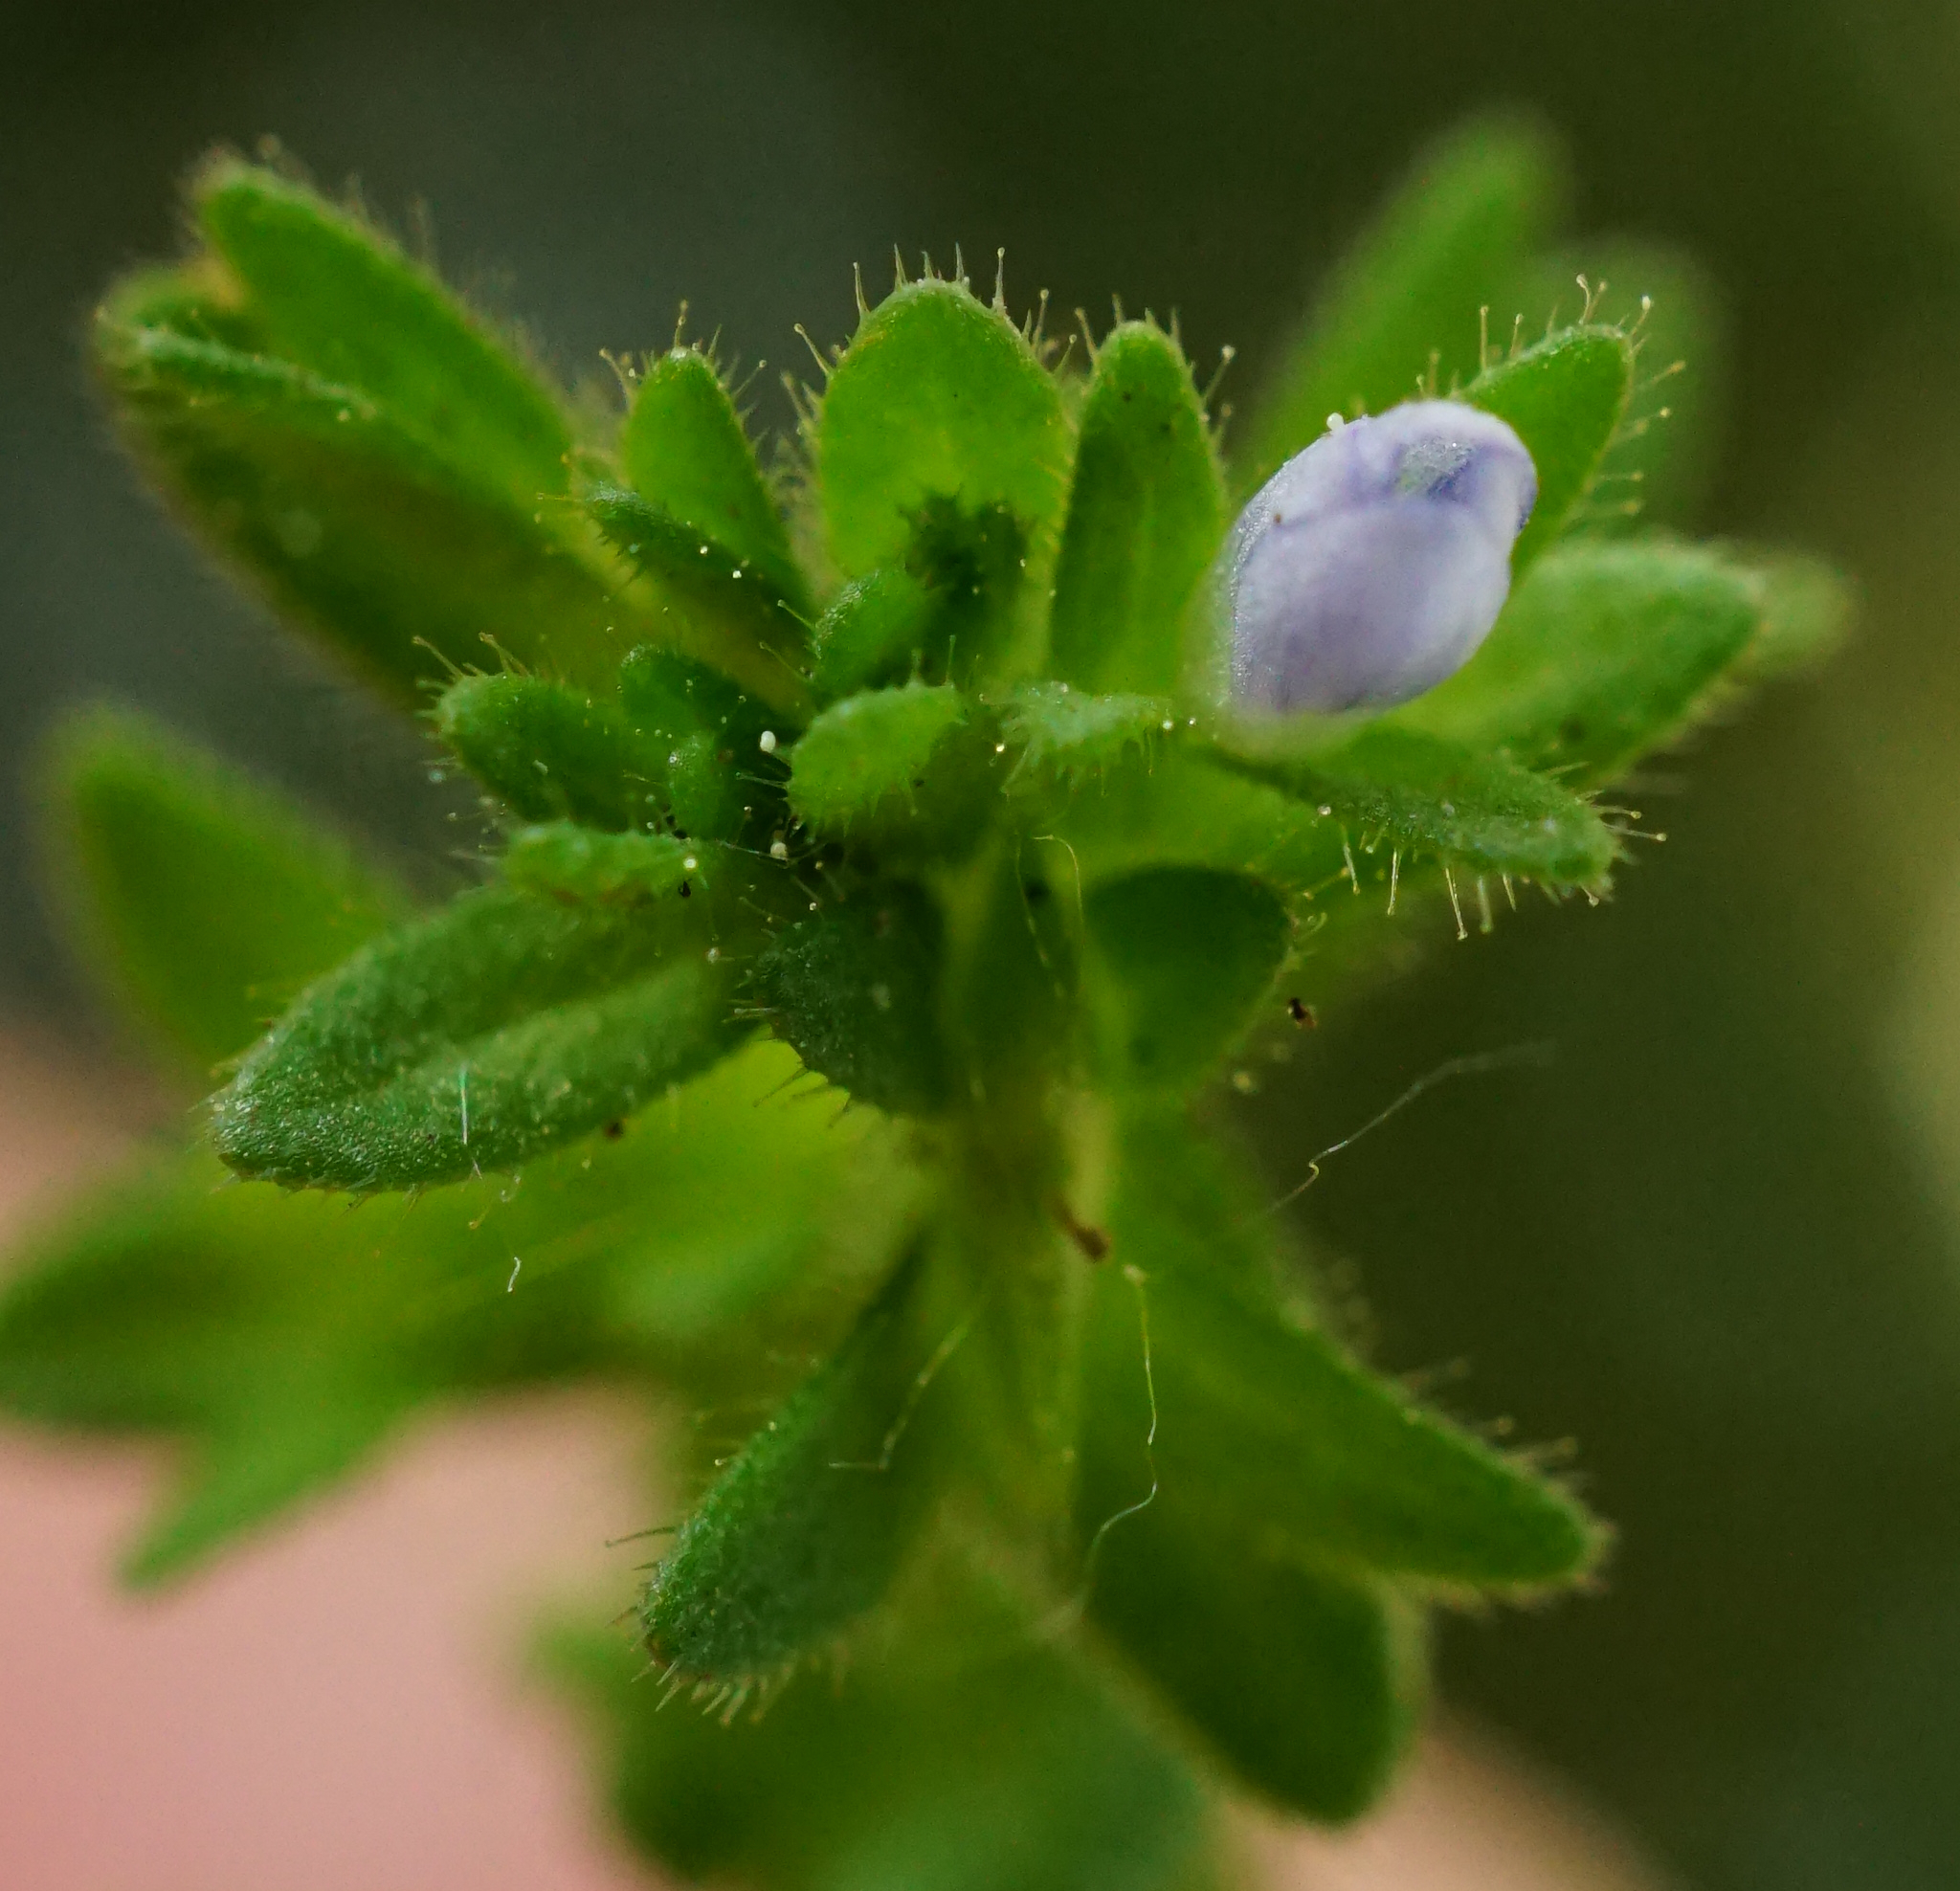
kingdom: Plantae
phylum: Tracheophyta
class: Magnoliopsida
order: Lamiales
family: Plantaginaceae
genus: Veronica
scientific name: Veronica arvensis
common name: Corn speedwell
